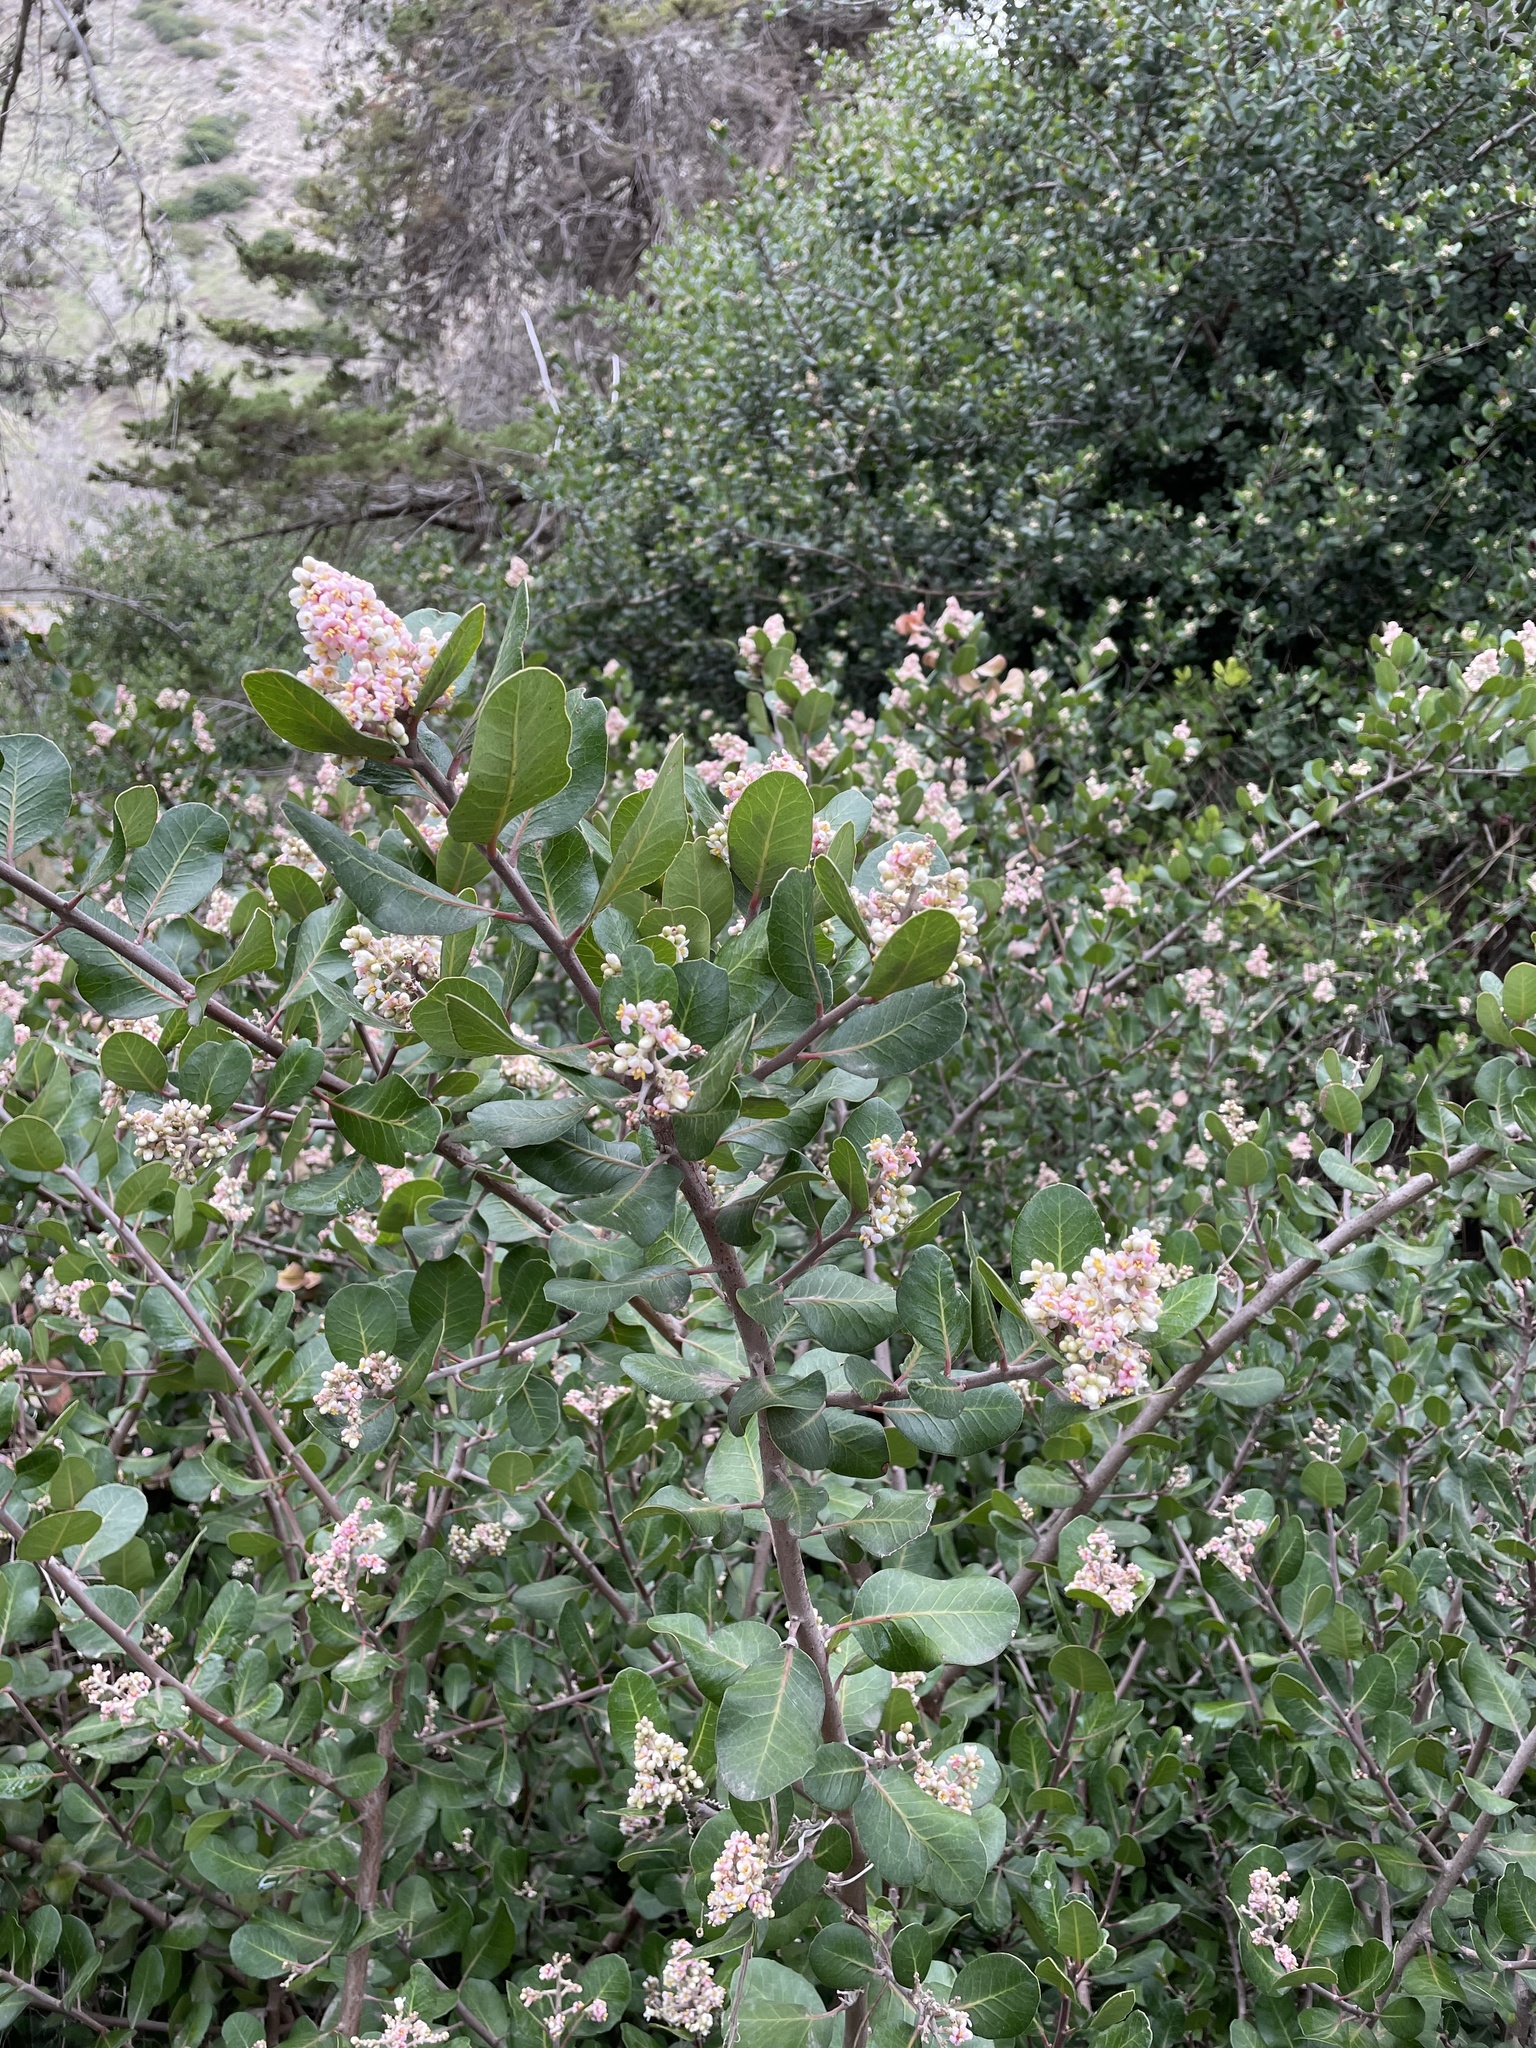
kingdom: Plantae
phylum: Tracheophyta
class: Magnoliopsida
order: Sapindales
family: Anacardiaceae
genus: Rhus
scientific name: Rhus integrifolia
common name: Lemonade sumac
